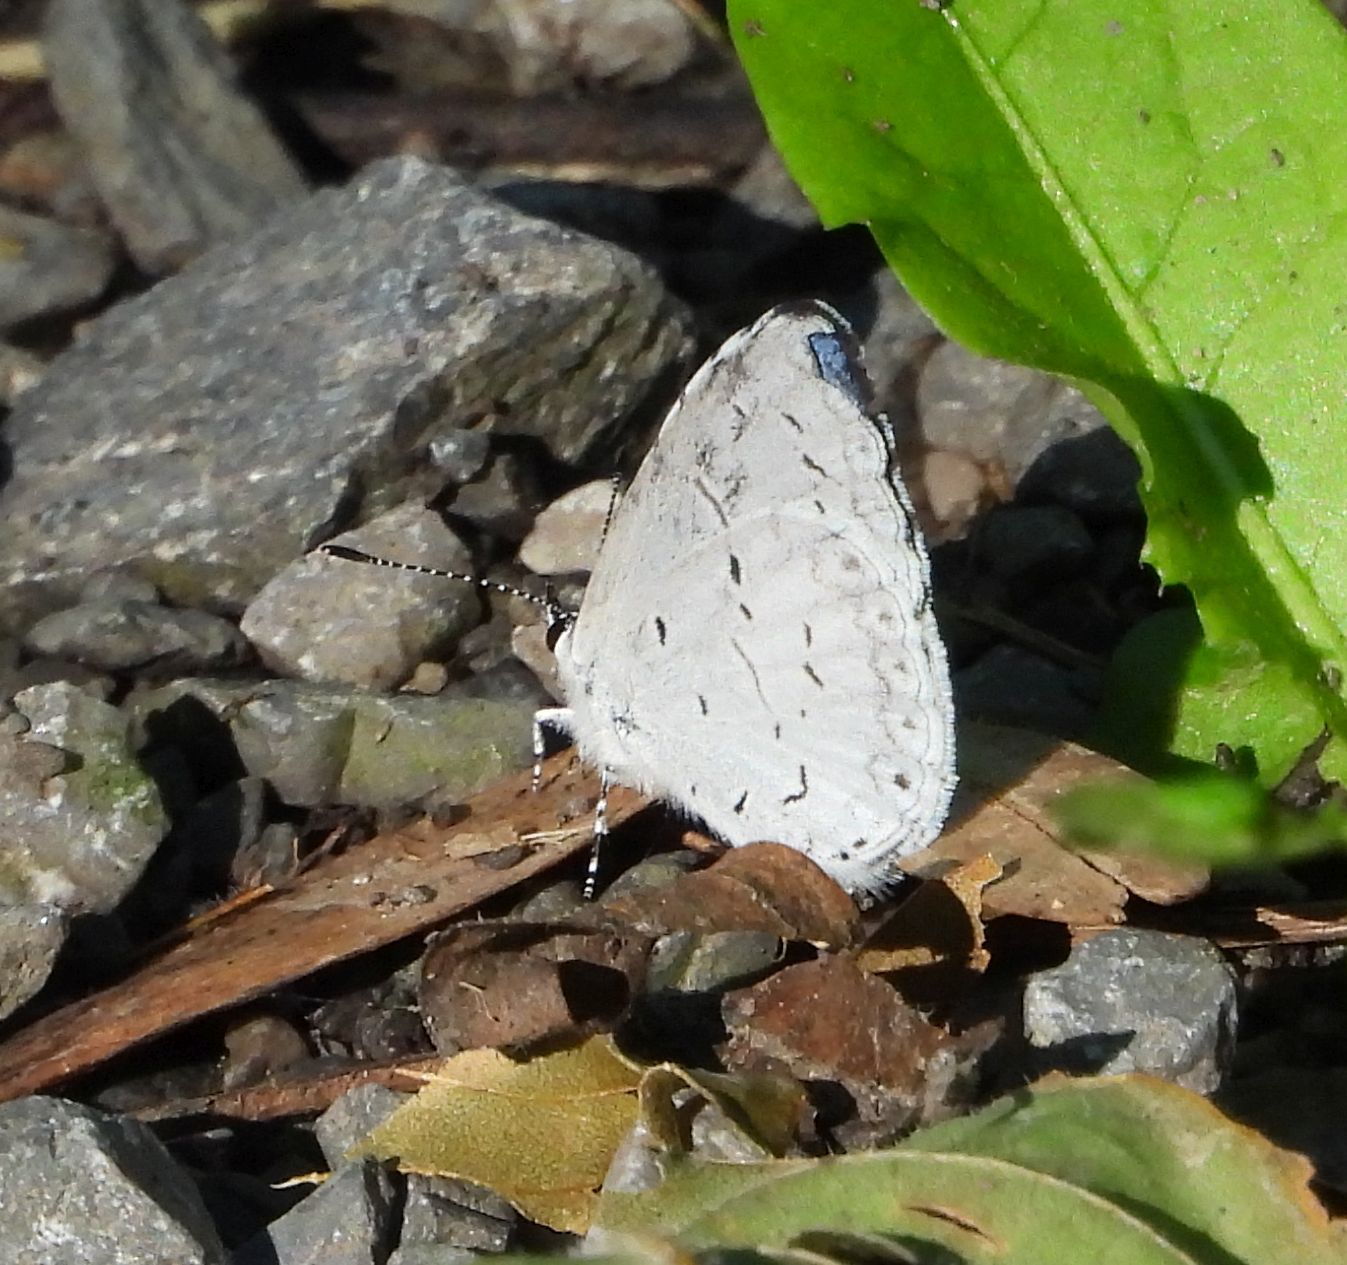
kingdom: Animalia
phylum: Arthropoda
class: Insecta
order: Lepidoptera
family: Lycaenidae
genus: Celastrina
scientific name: Celastrina
